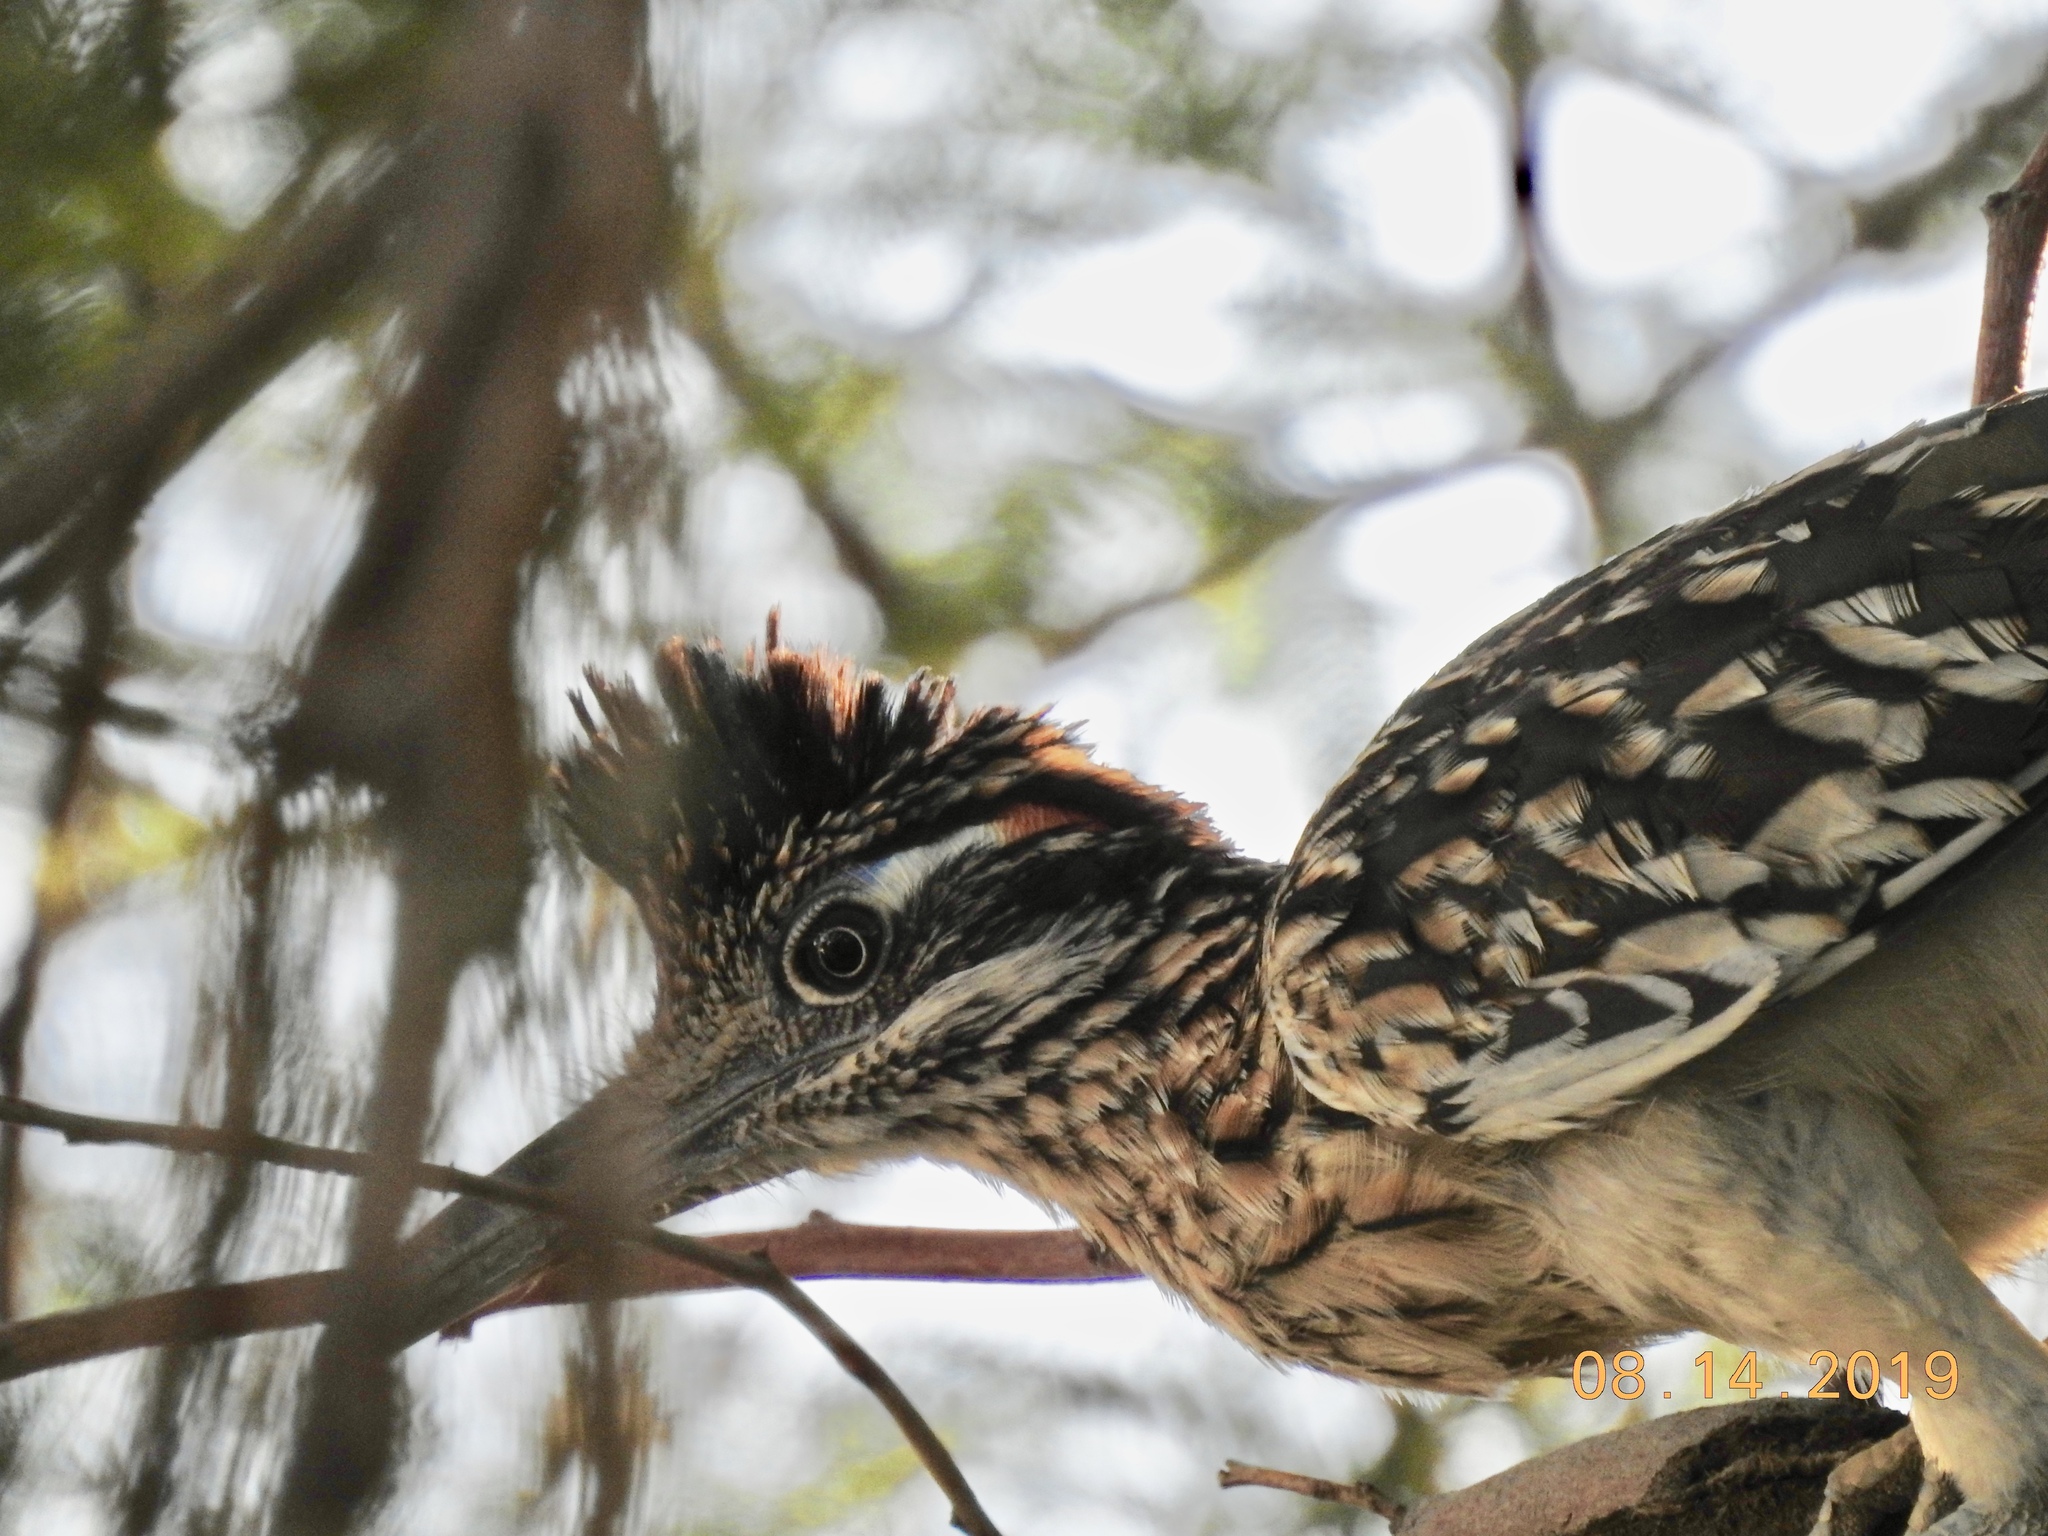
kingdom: Animalia
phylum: Chordata
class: Aves
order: Cuculiformes
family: Cuculidae
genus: Geococcyx
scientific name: Geococcyx californianus
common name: Greater roadrunner
